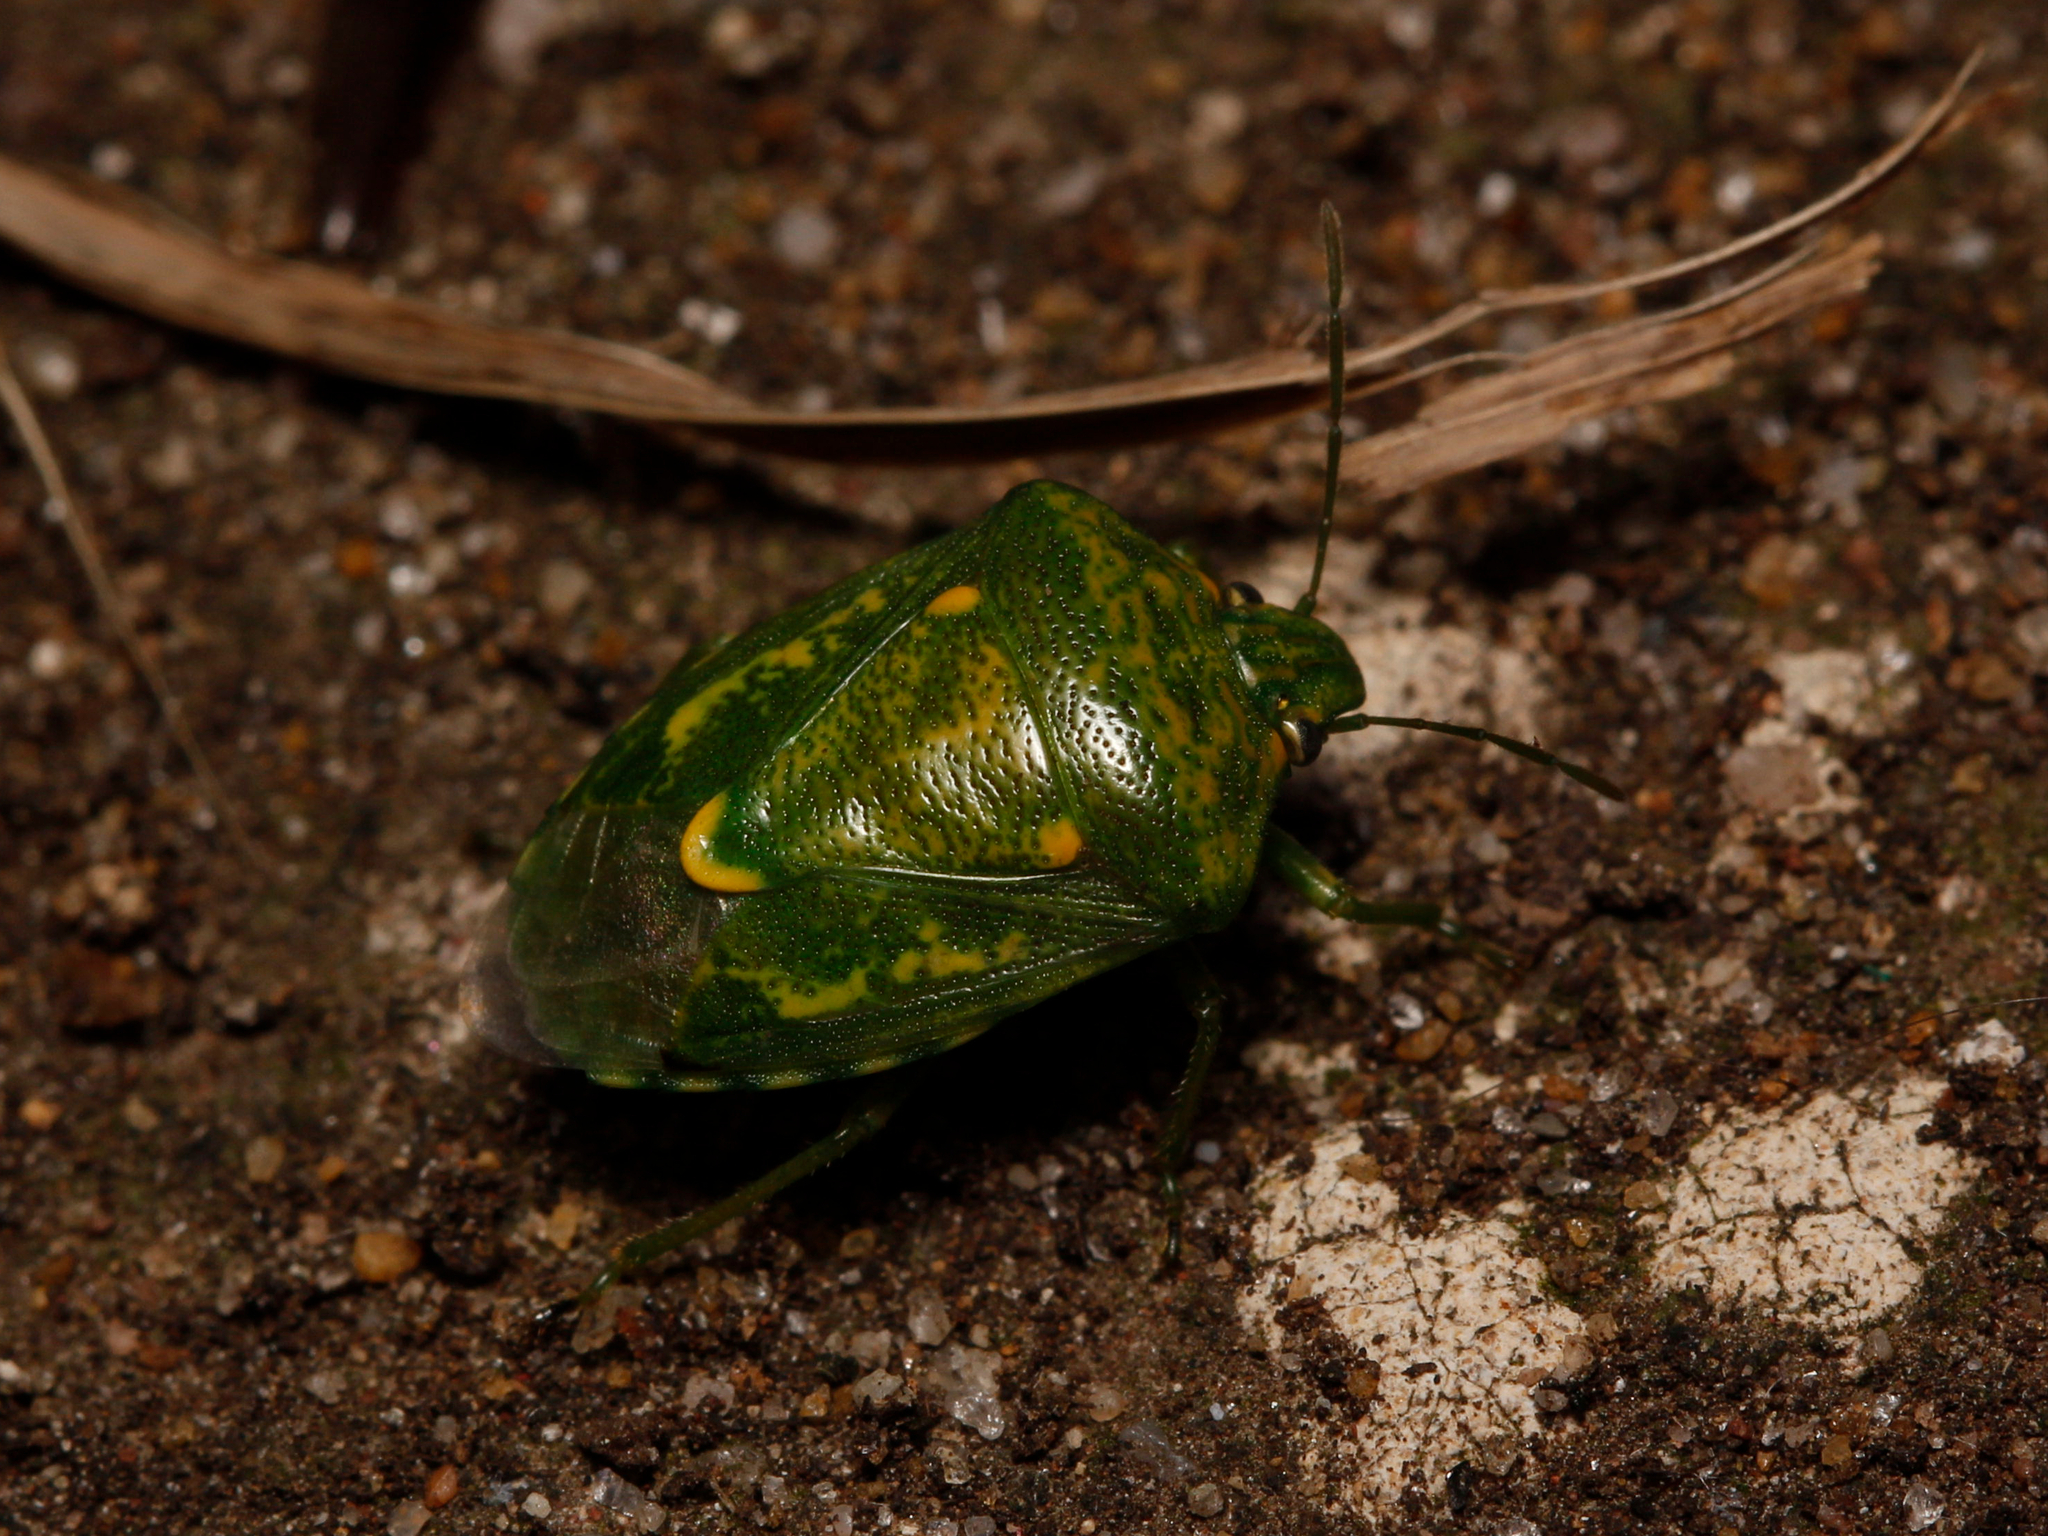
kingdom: Animalia
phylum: Arthropoda
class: Insecta
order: Hemiptera
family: Pentatomidae
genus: Banasa
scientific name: Banasa euchlora
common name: Cedar berry bug
